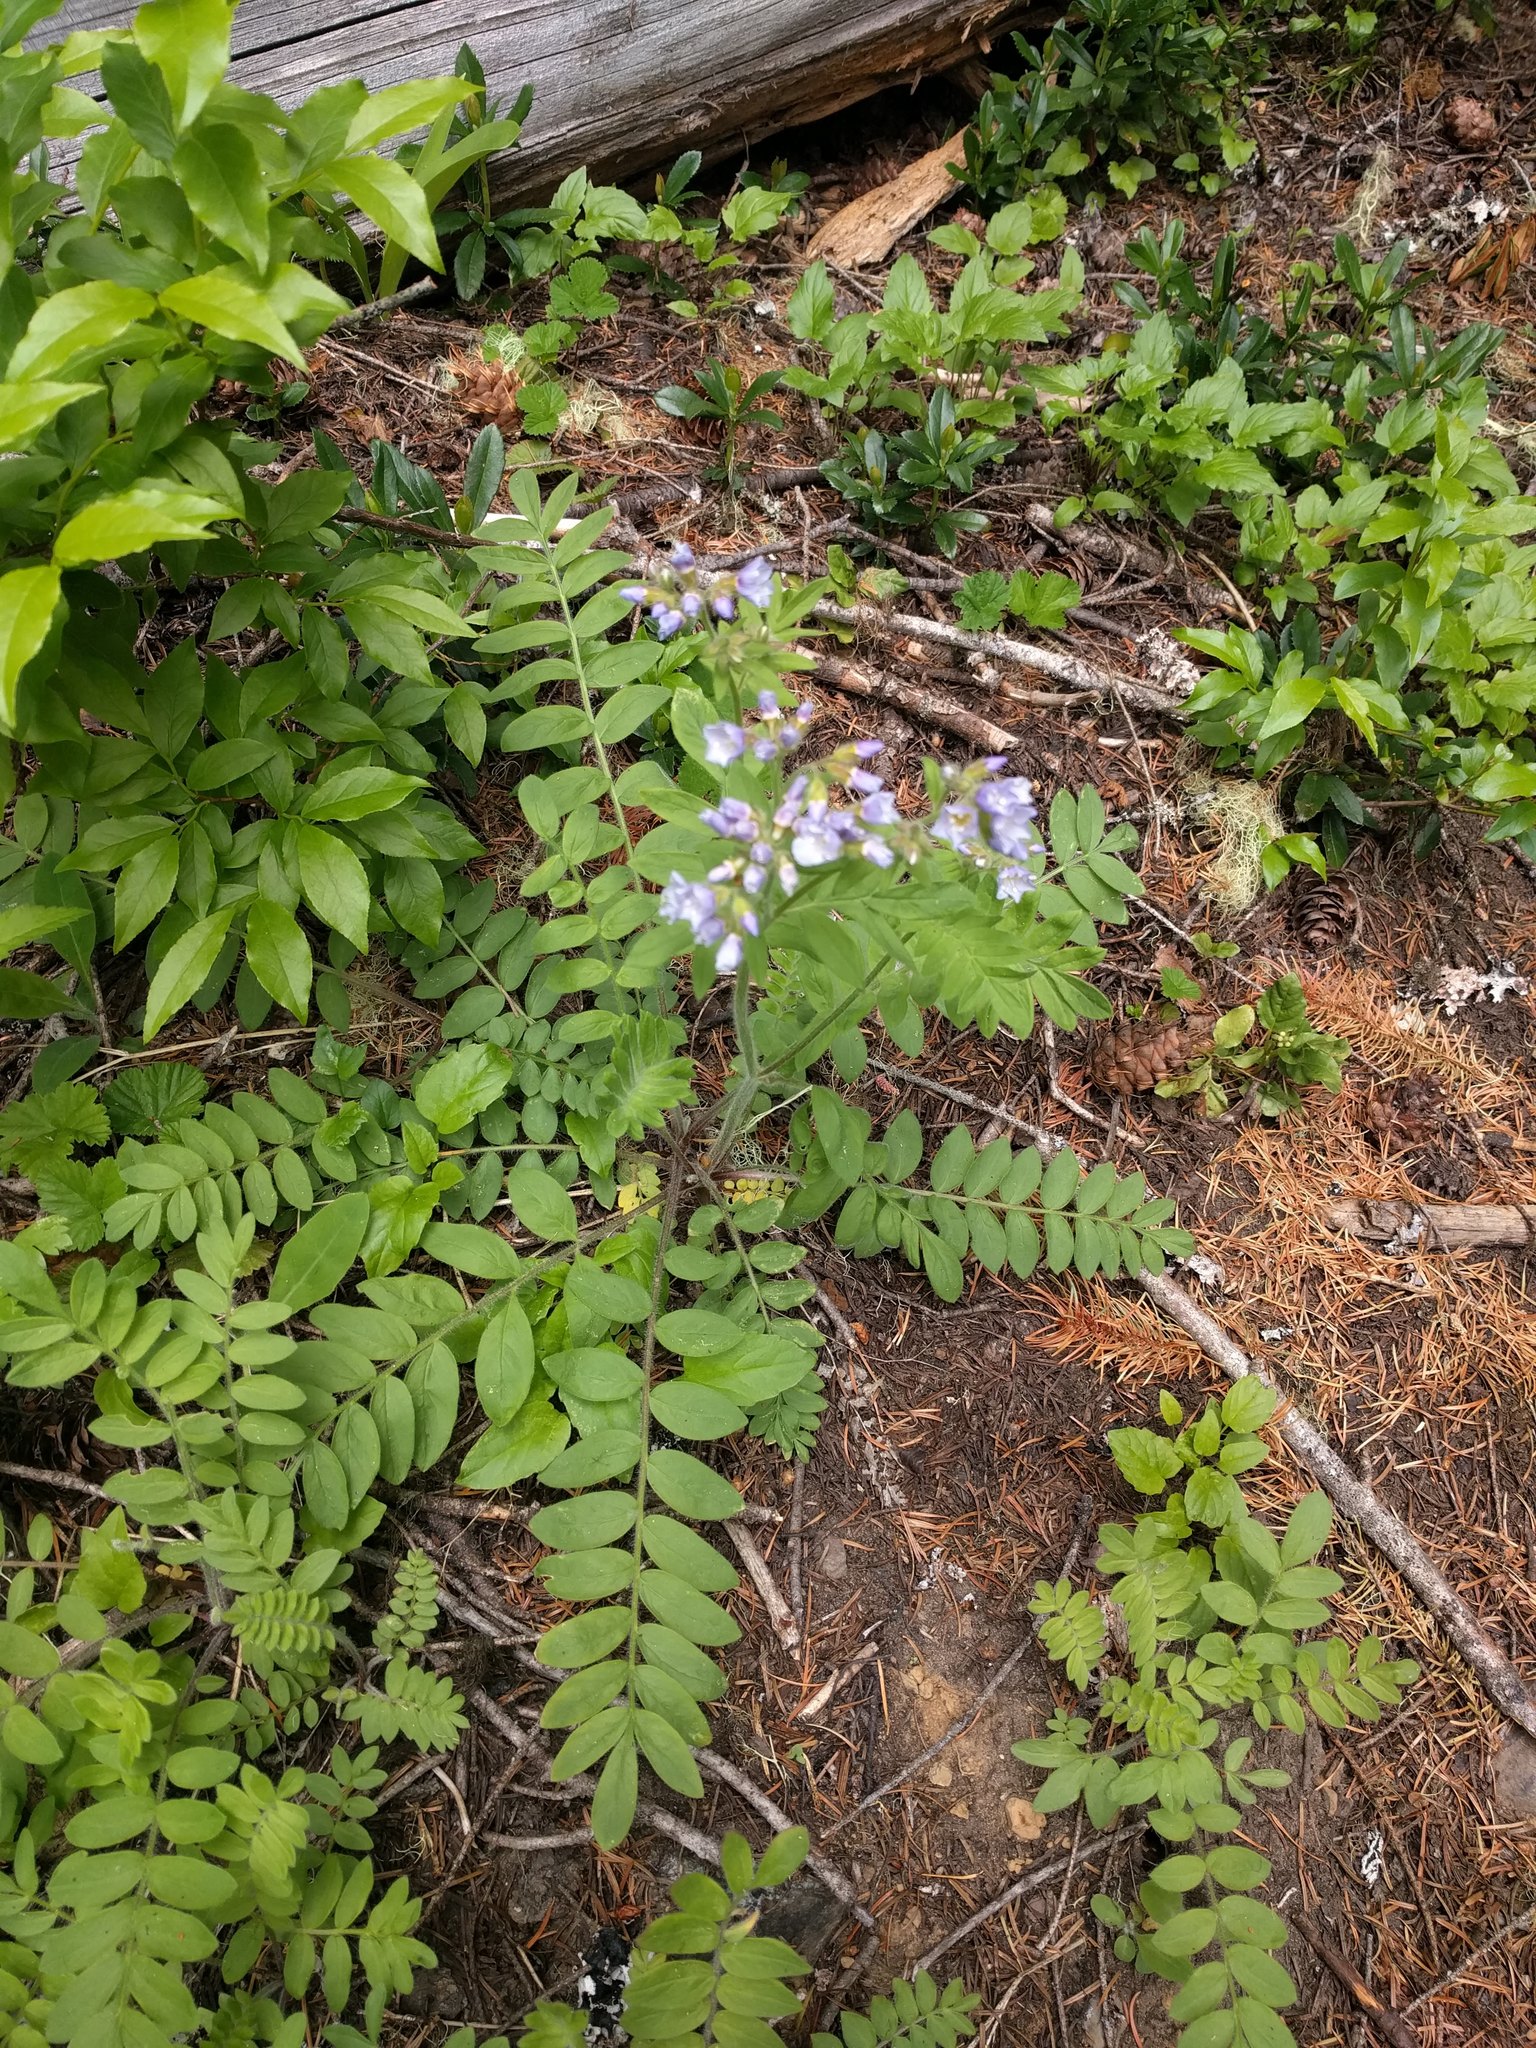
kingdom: Plantae
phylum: Tracheophyta
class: Magnoliopsida
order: Ericales
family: Polemoniaceae
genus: Polemonium
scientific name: Polemonium californicum
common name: California jacob's ladder
